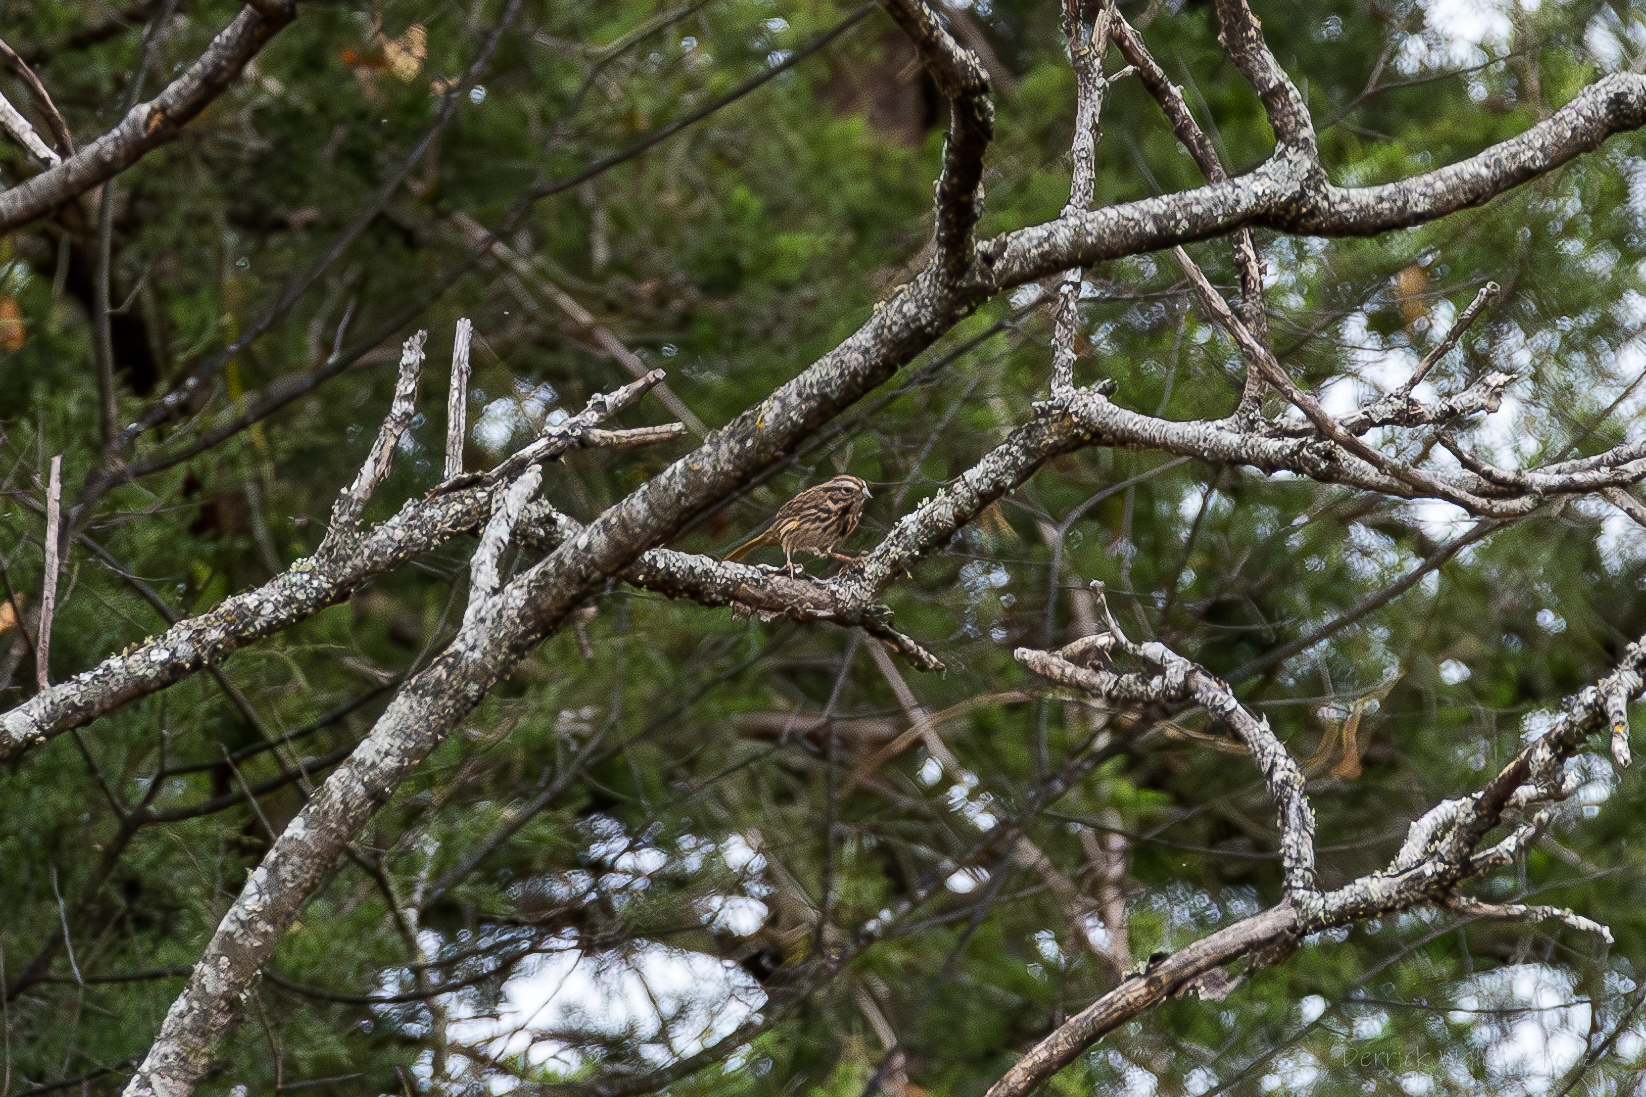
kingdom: Animalia
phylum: Chordata
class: Aves
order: Passeriformes
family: Passerellidae
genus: Melospiza
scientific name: Melospiza melodia
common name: Song sparrow
